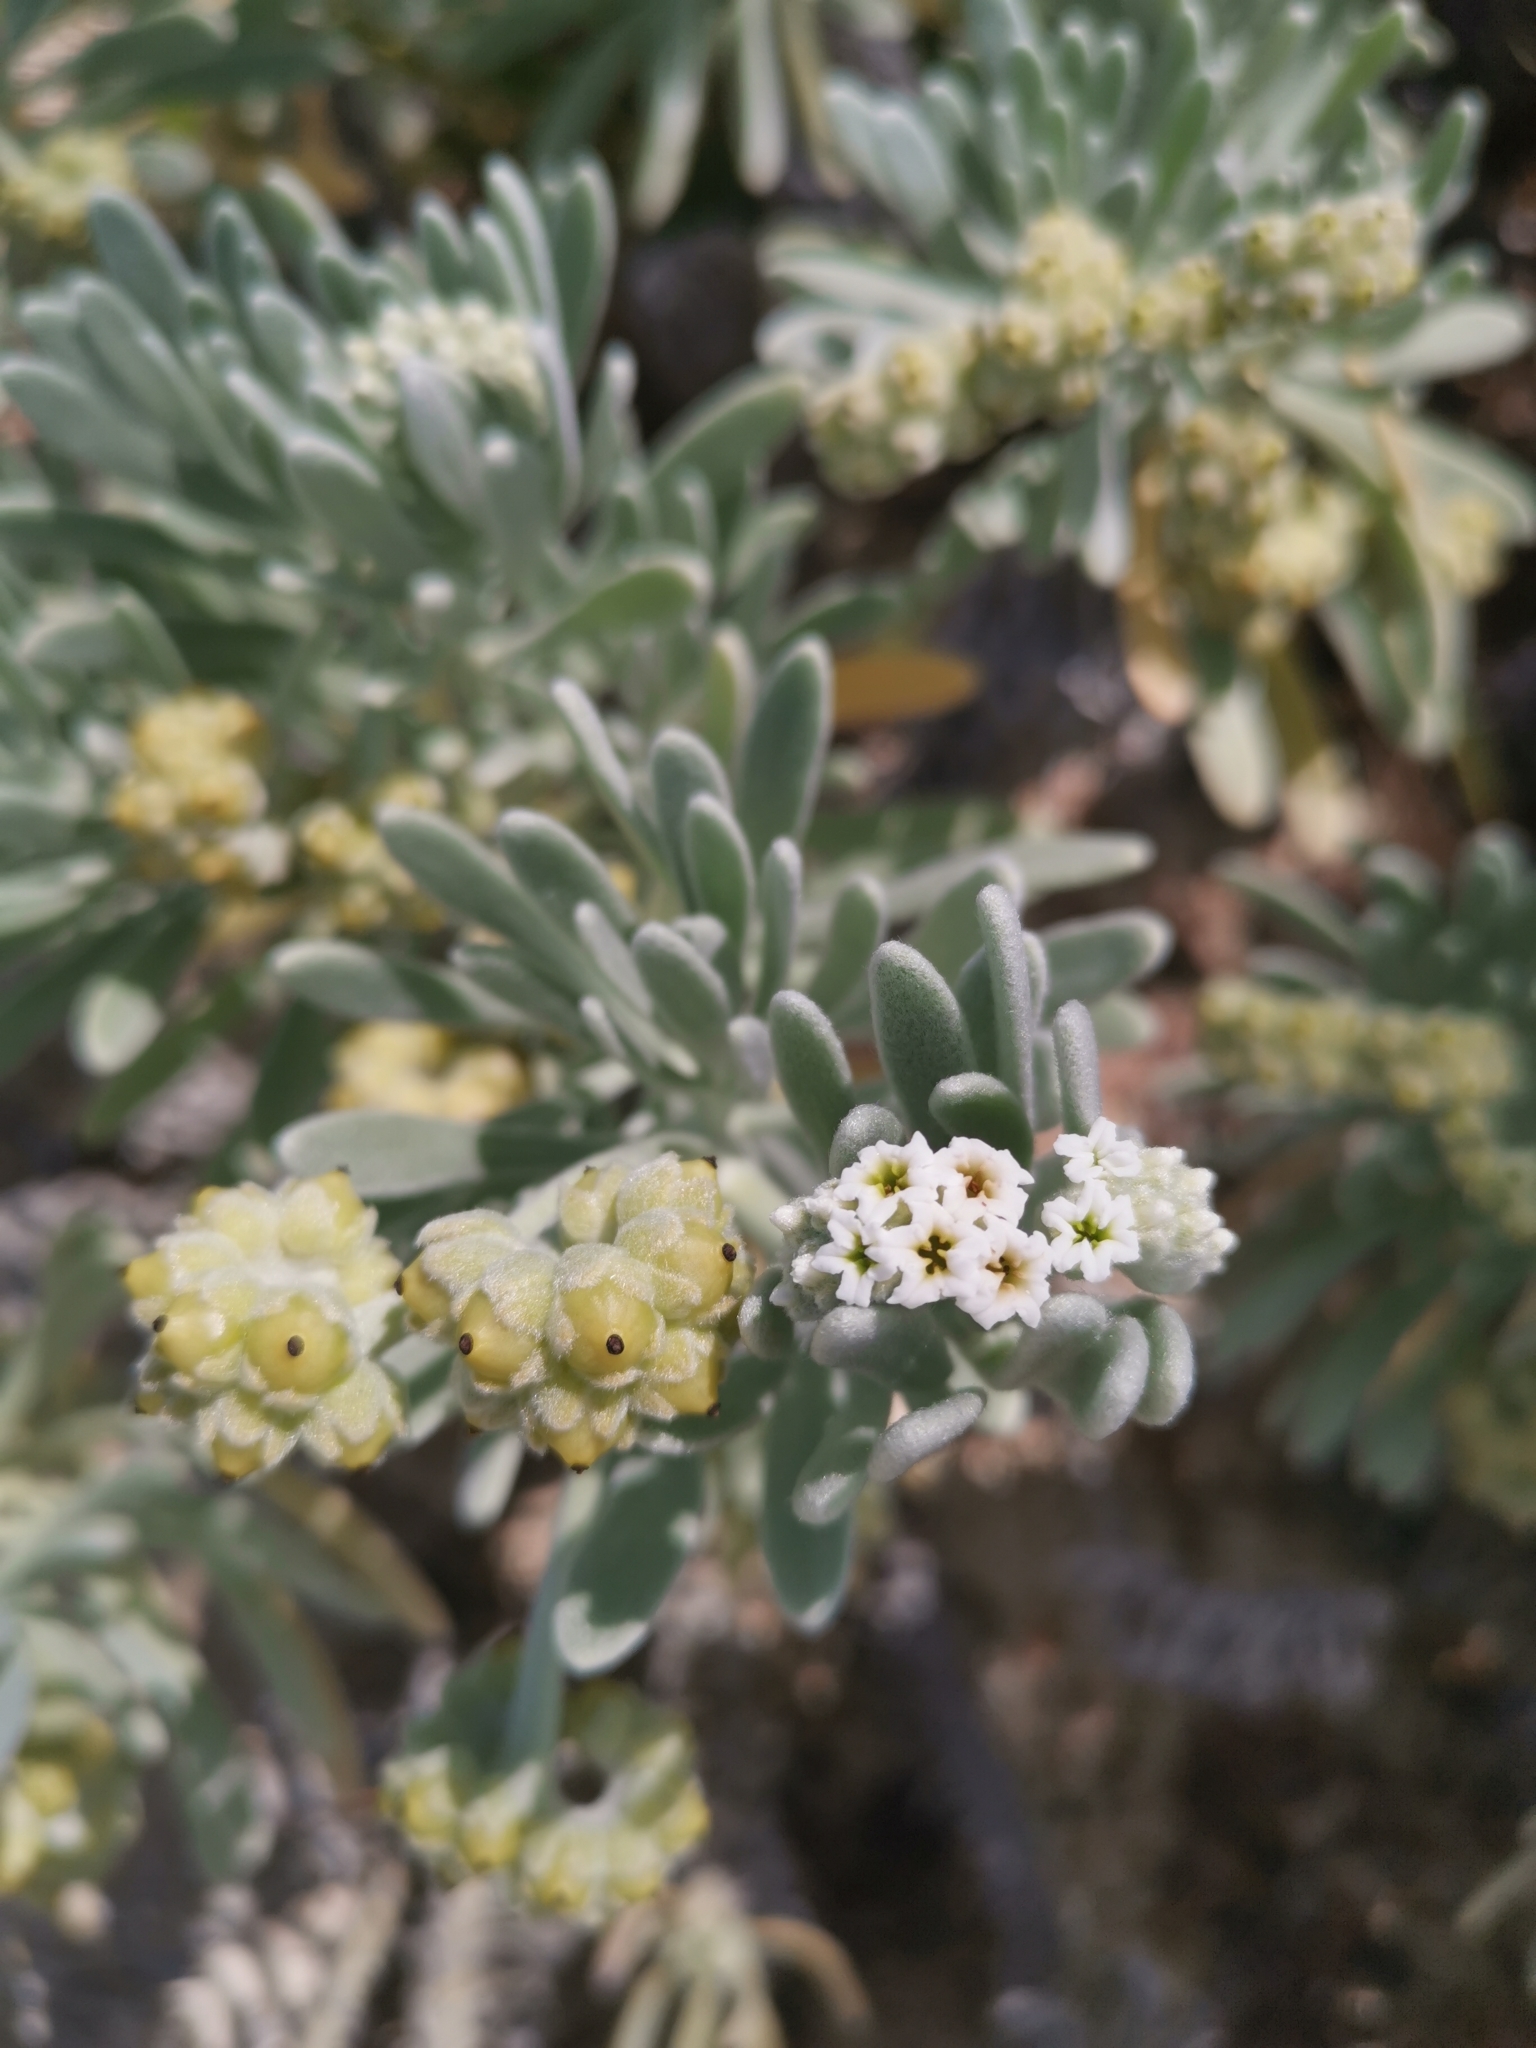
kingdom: Plantae
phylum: Tracheophyta
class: Magnoliopsida
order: Boraginales
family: Heliotropiaceae
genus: Tournefortia
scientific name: Tournefortia gnaphalodes
